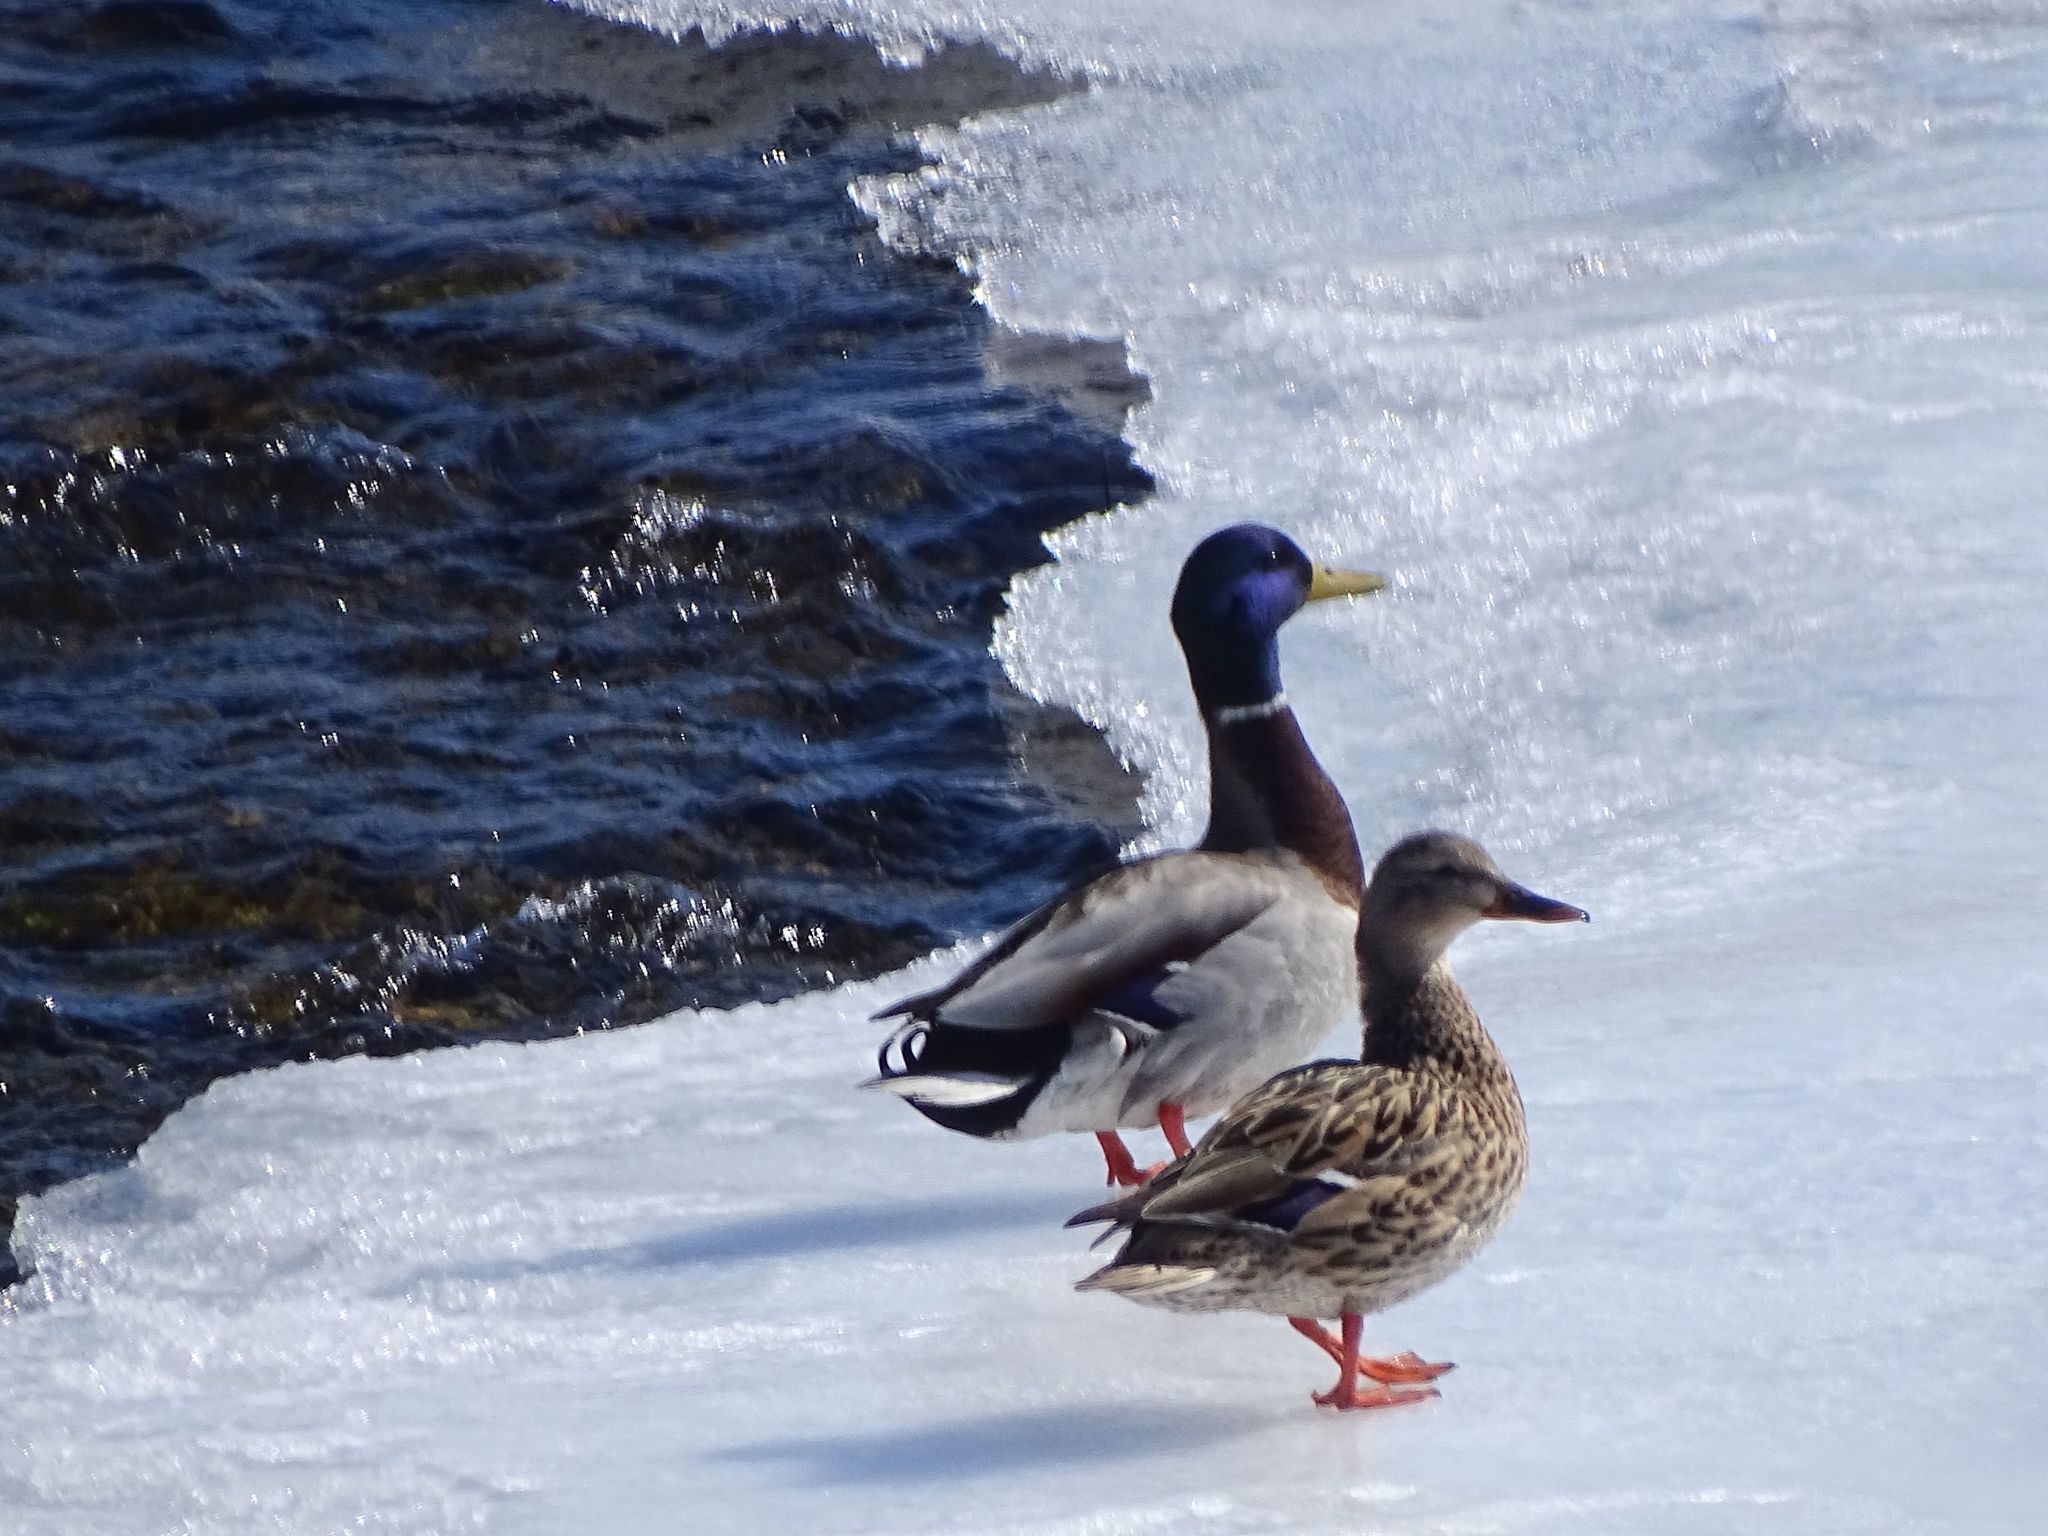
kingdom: Animalia
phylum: Chordata
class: Aves
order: Anseriformes
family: Anatidae
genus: Anas
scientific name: Anas platyrhynchos
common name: Mallard
